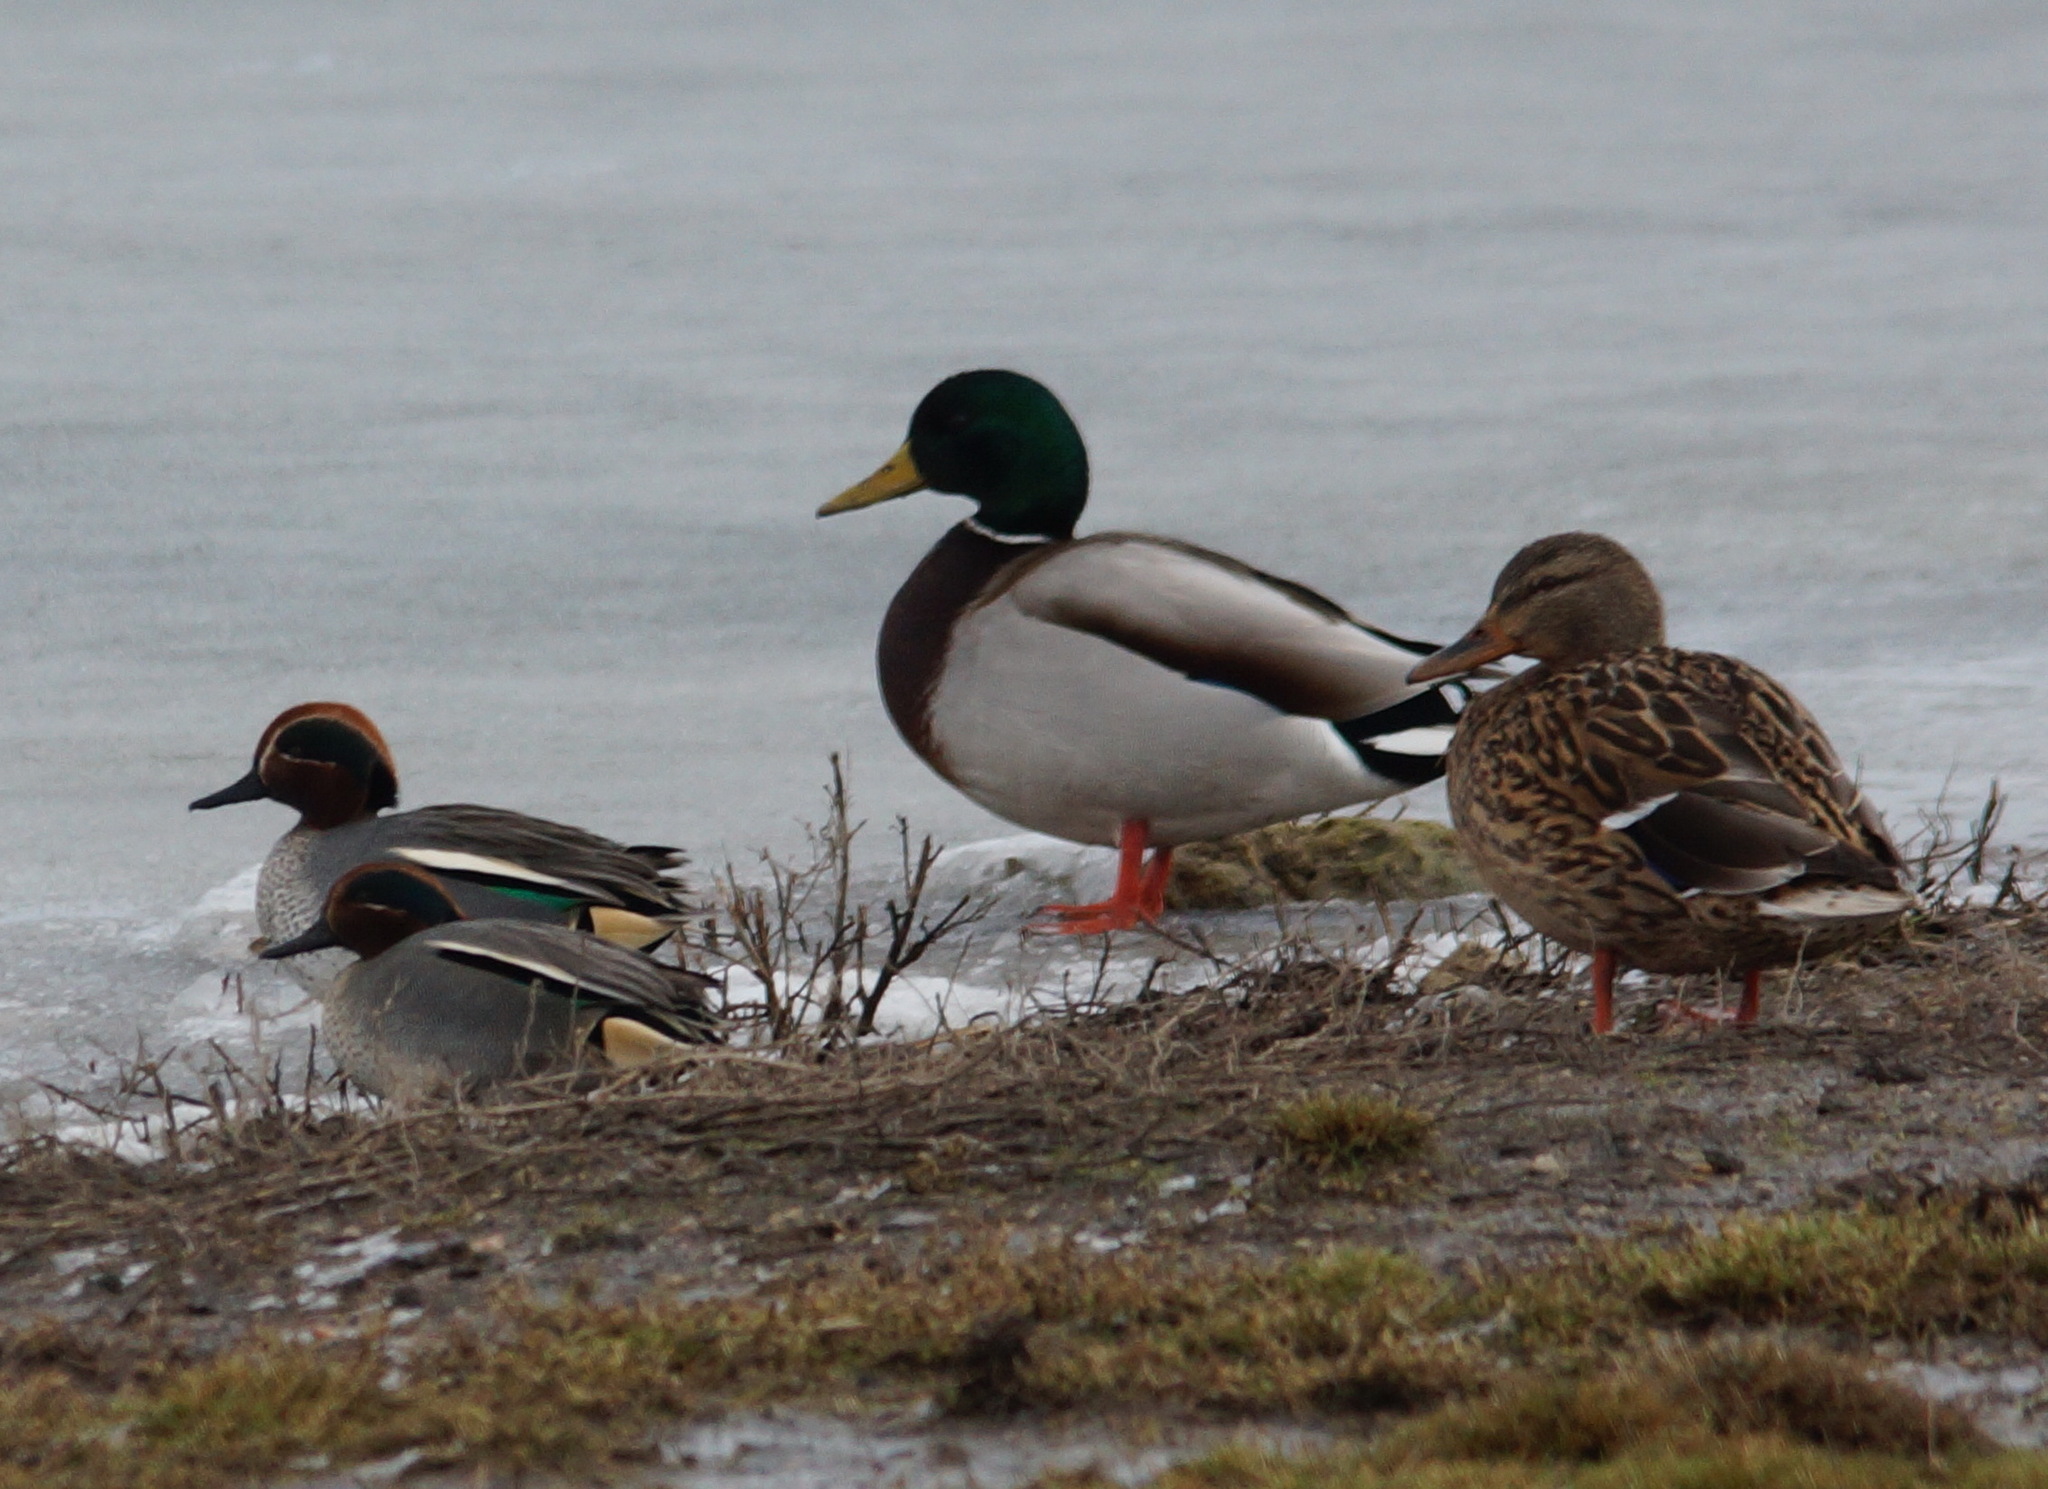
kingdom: Animalia
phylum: Chordata
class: Aves
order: Anseriformes
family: Anatidae
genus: Anas
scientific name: Anas crecca
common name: Eurasian teal
